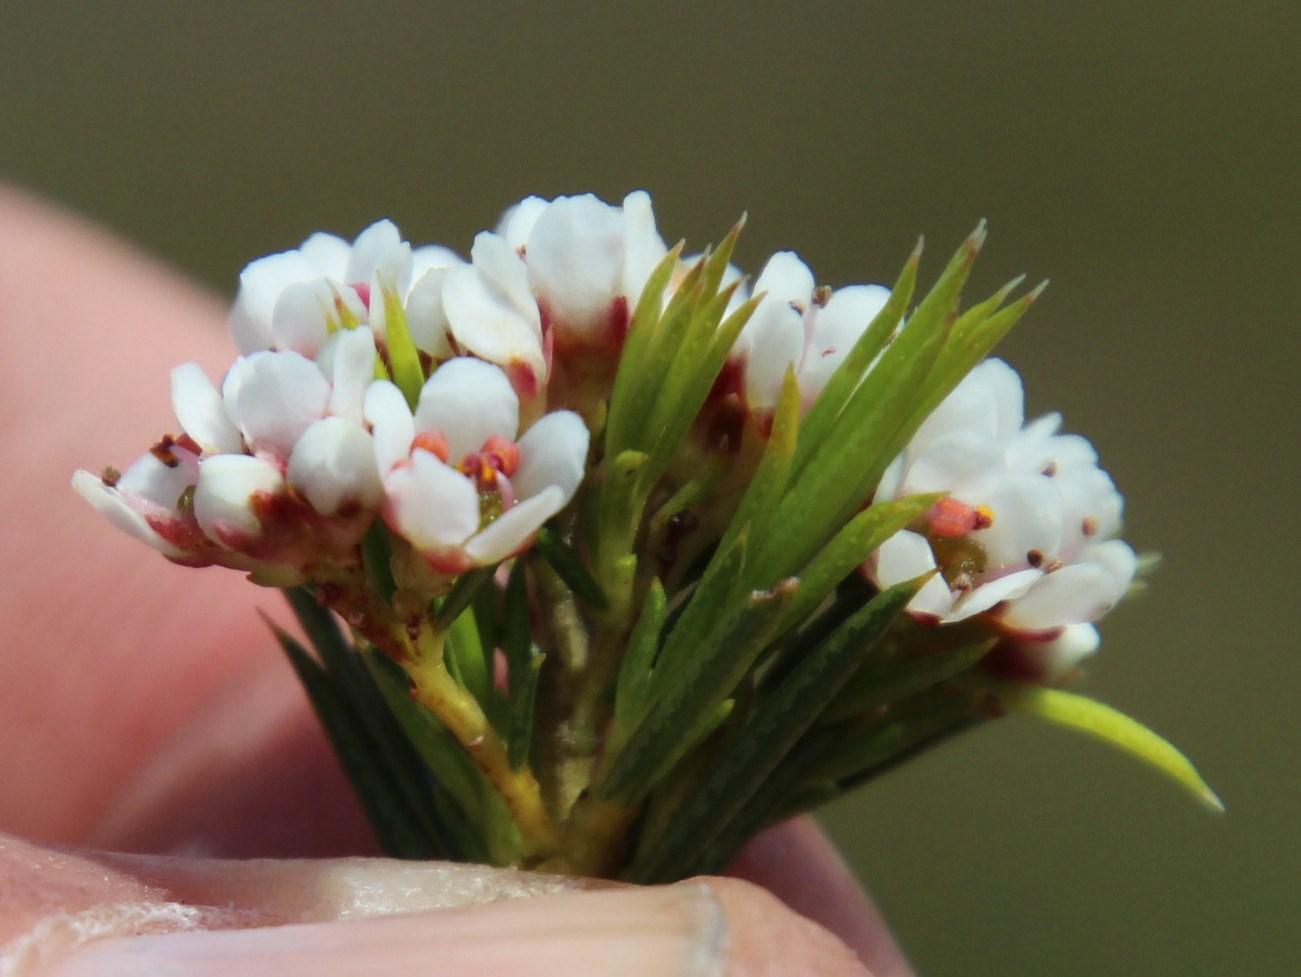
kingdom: Plantae
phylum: Tracheophyta
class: Magnoliopsida
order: Sapindales
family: Rutaceae
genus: Diosma
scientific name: Diosma hirsuta
